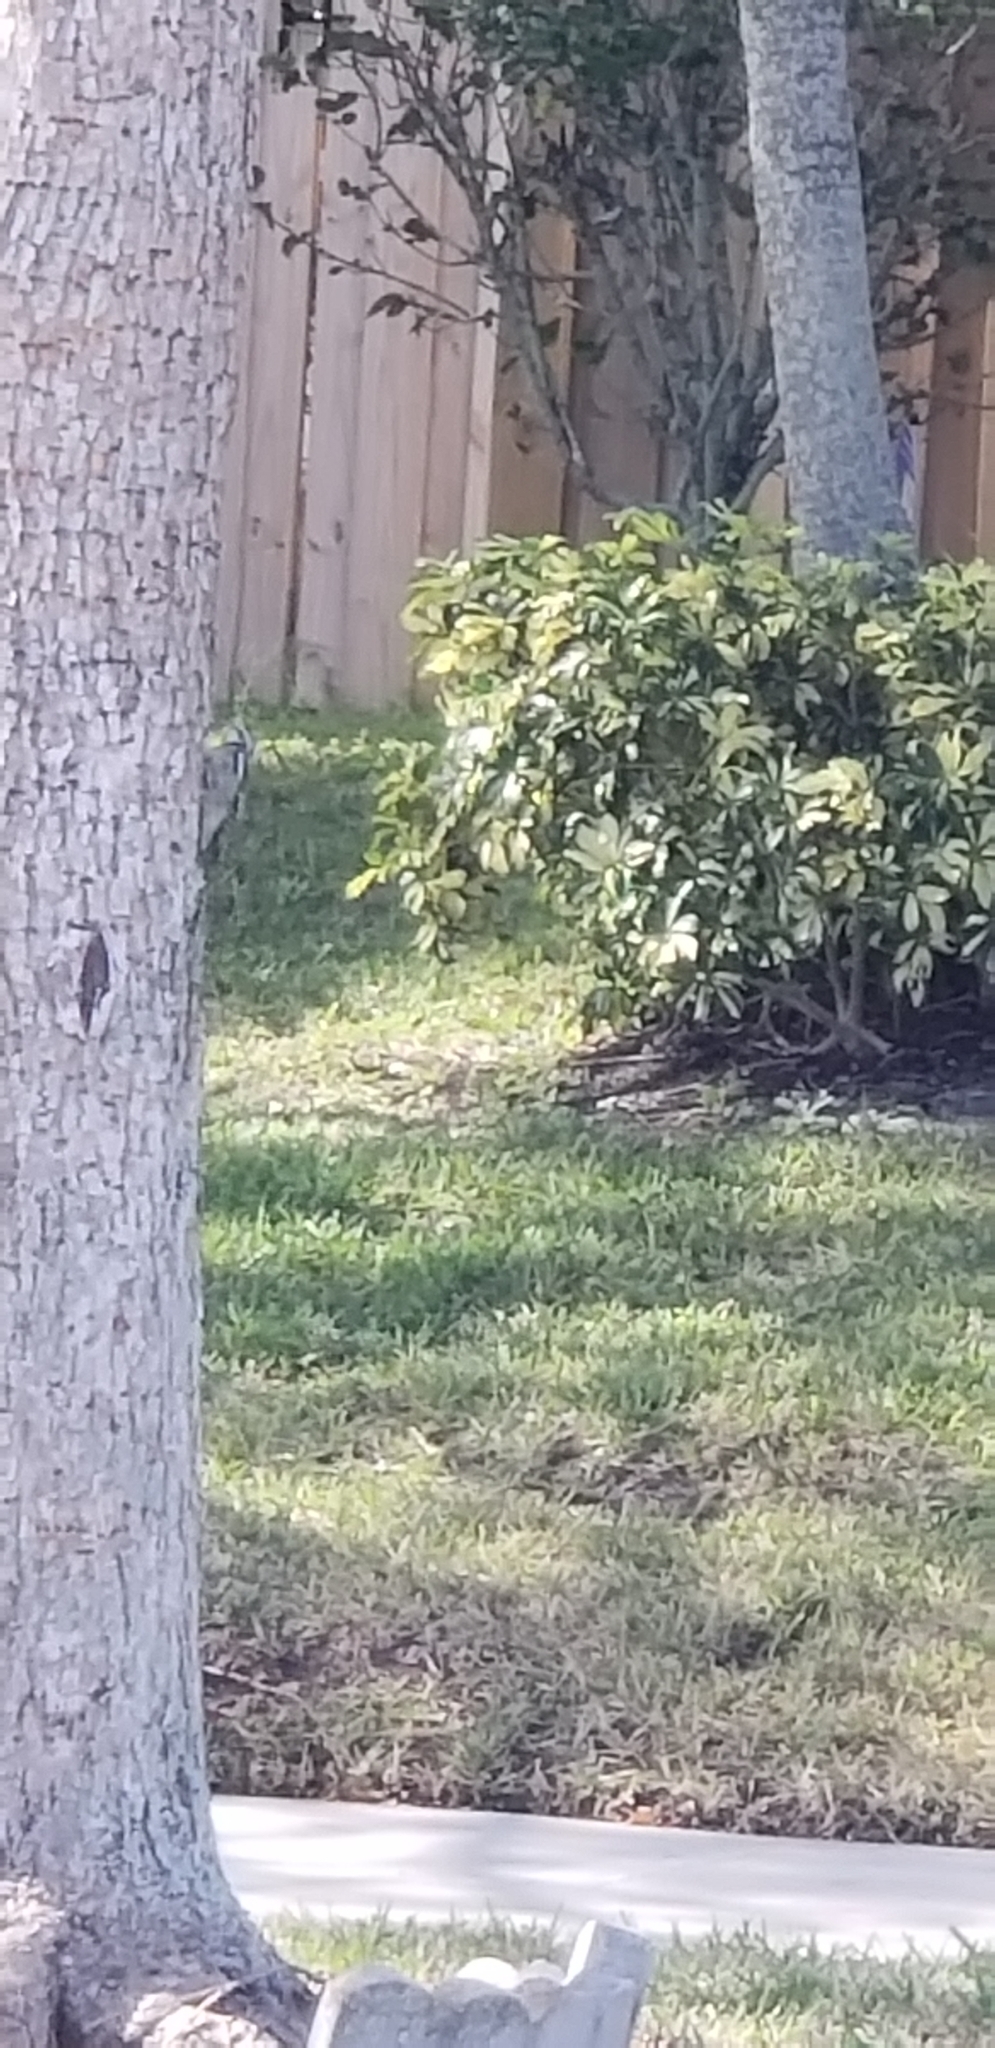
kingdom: Animalia
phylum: Chordata
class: Aves
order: Piciformes
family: Picidae
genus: Sphyrapicus
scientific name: Sphyrapicus varius
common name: Yellow-bellied sapsucker
